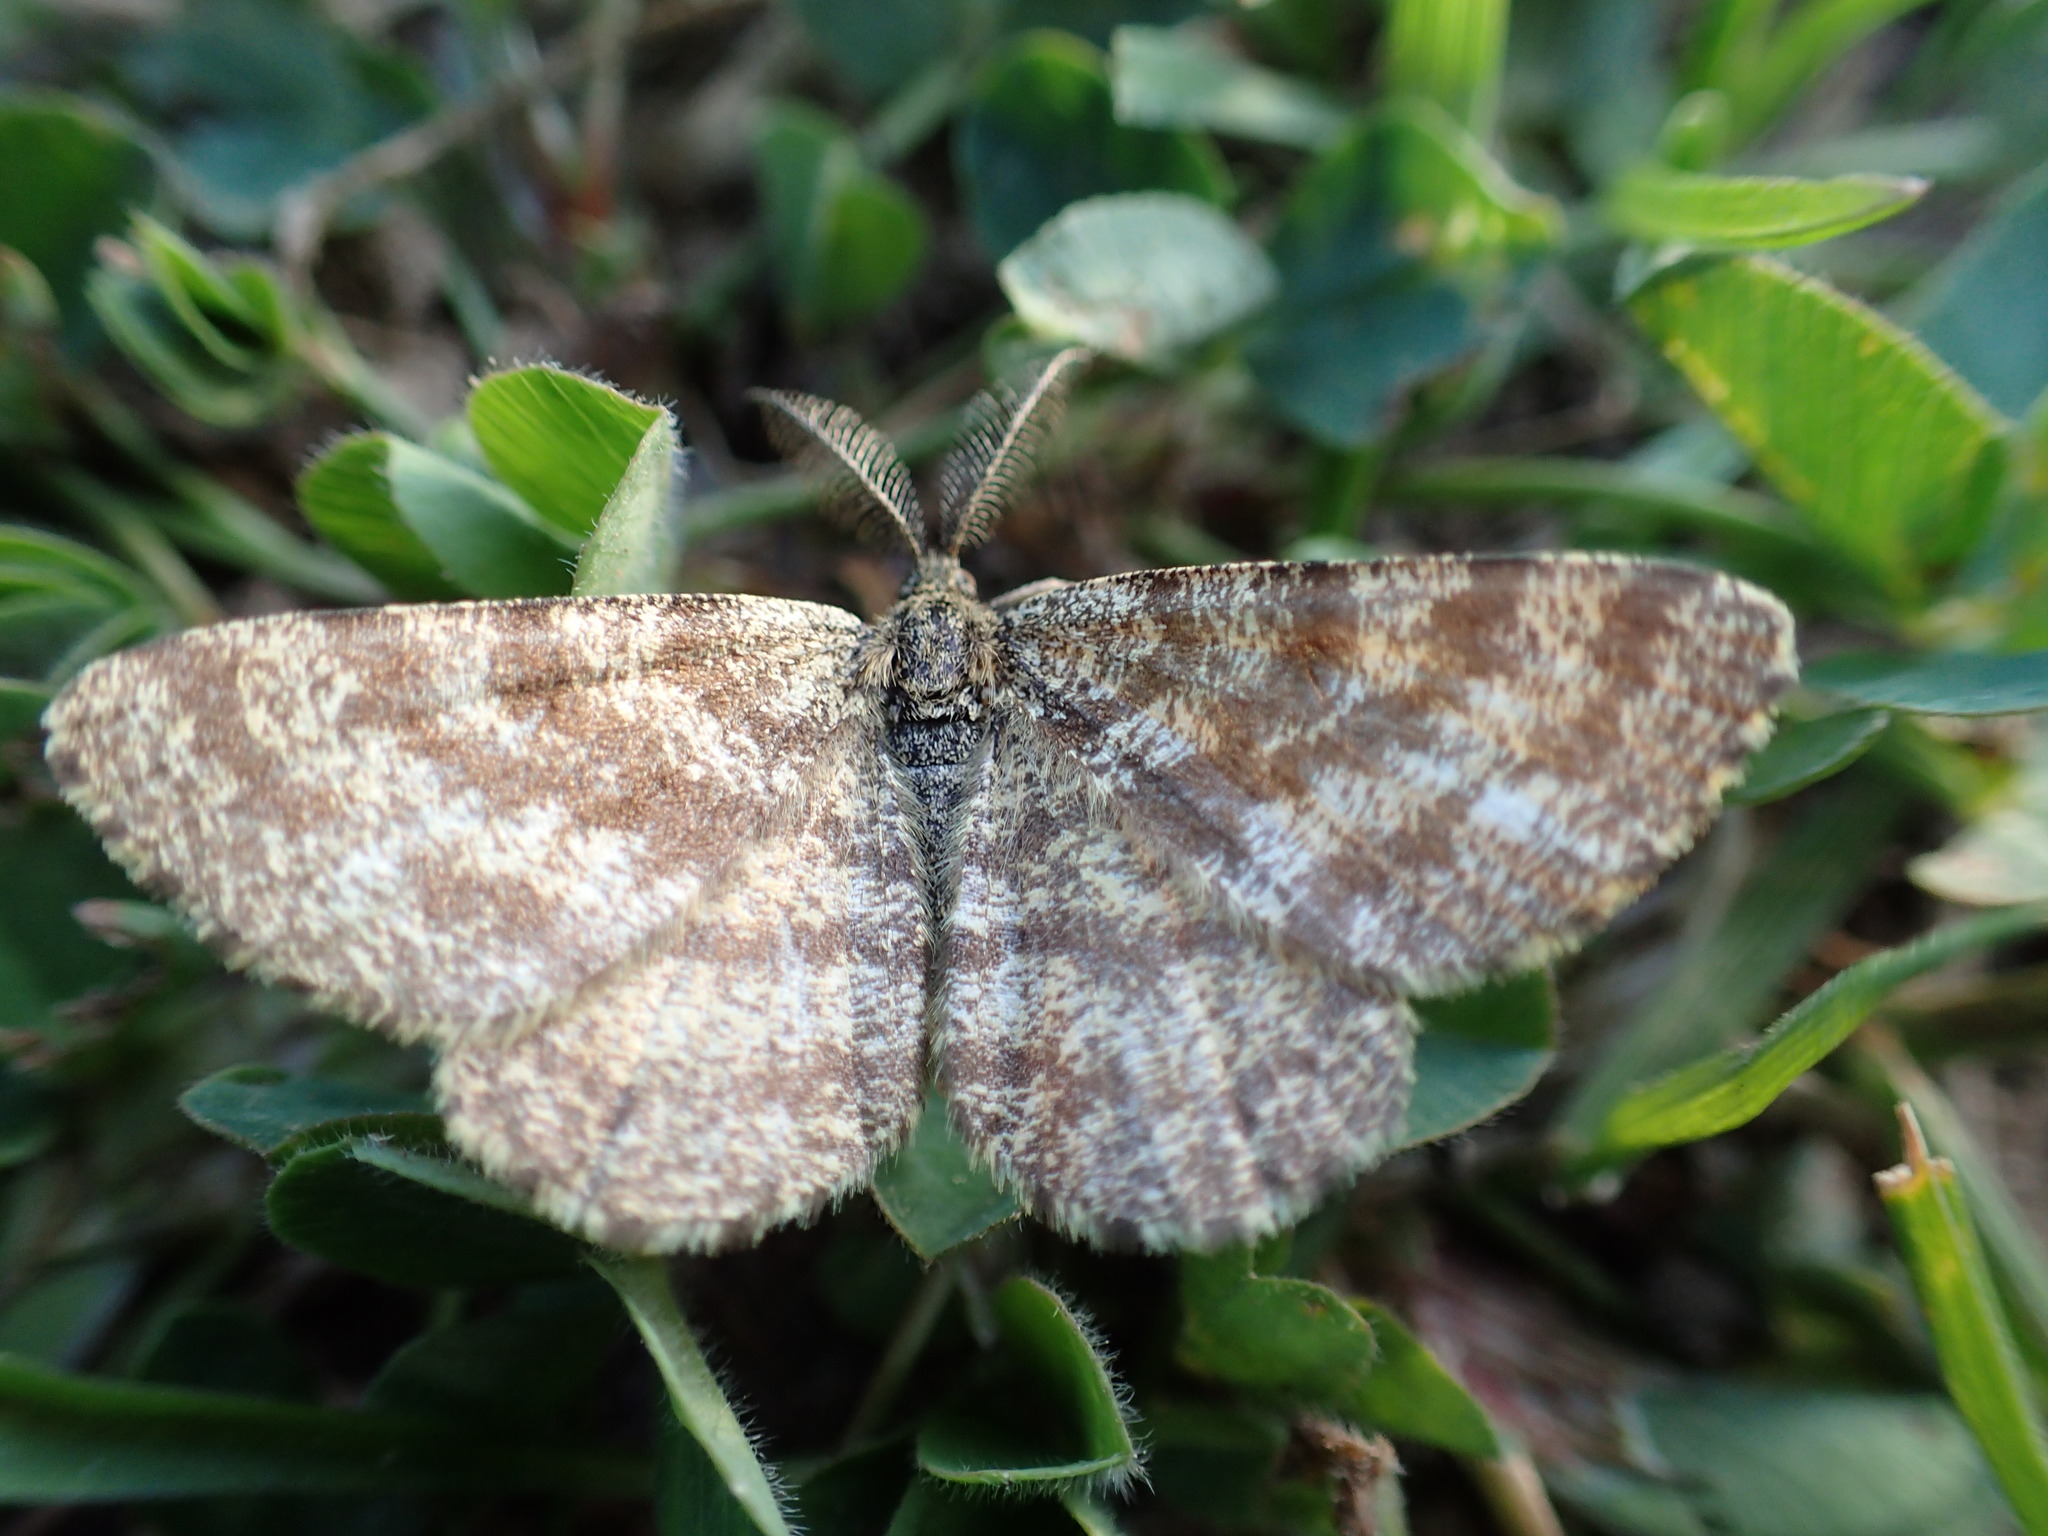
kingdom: Animalia
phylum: Arthropoda
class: Insecta
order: Lepidoptera
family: Geometridae
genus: Ematurga
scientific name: Ematurga atomaria
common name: Common heath
